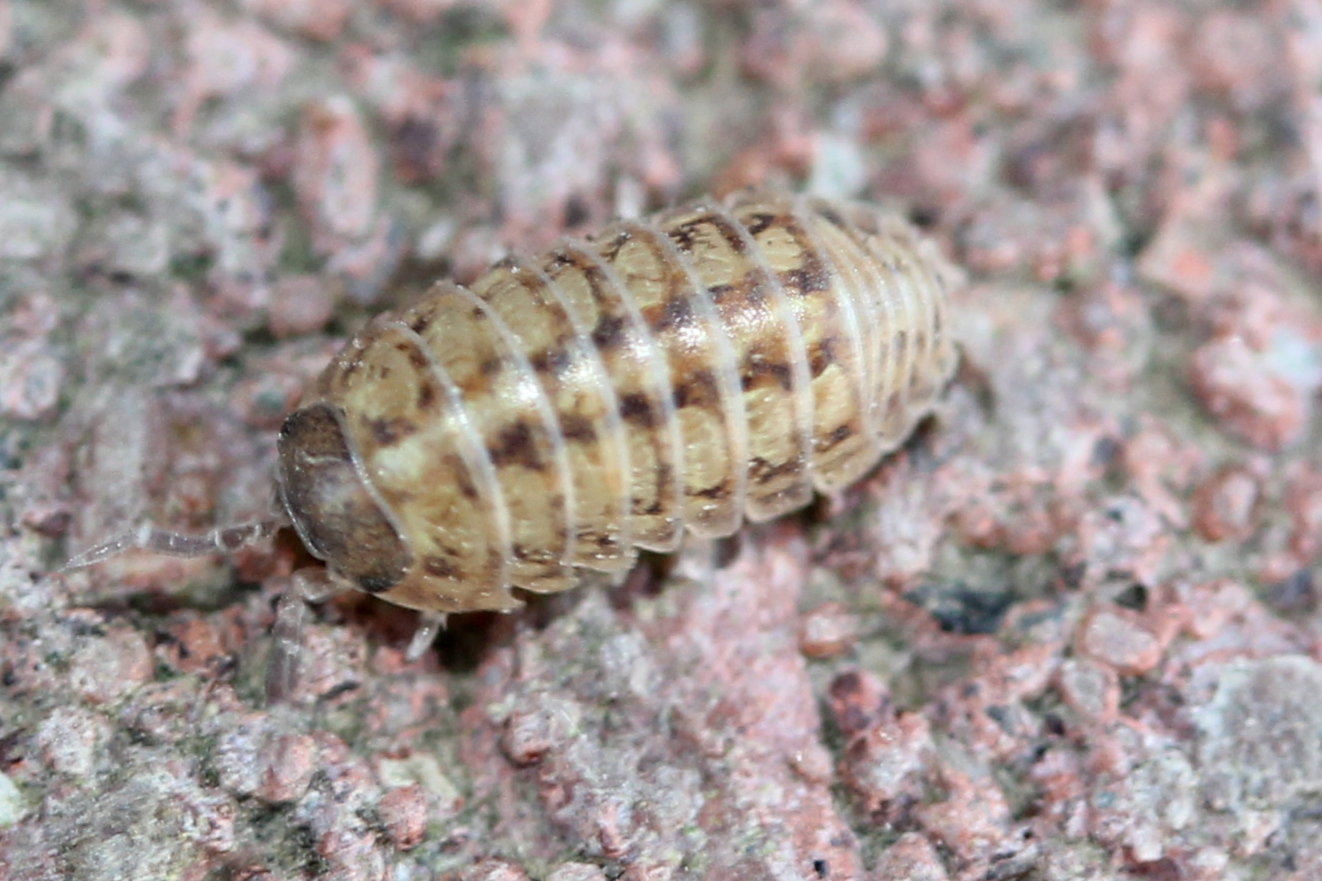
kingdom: Animalia
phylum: Arthropoda
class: Malacostraca
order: Isopoda
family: Armadillidiidae
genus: Armadillidium
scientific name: Armadillidium vulgare
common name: Common pill woodlouse
